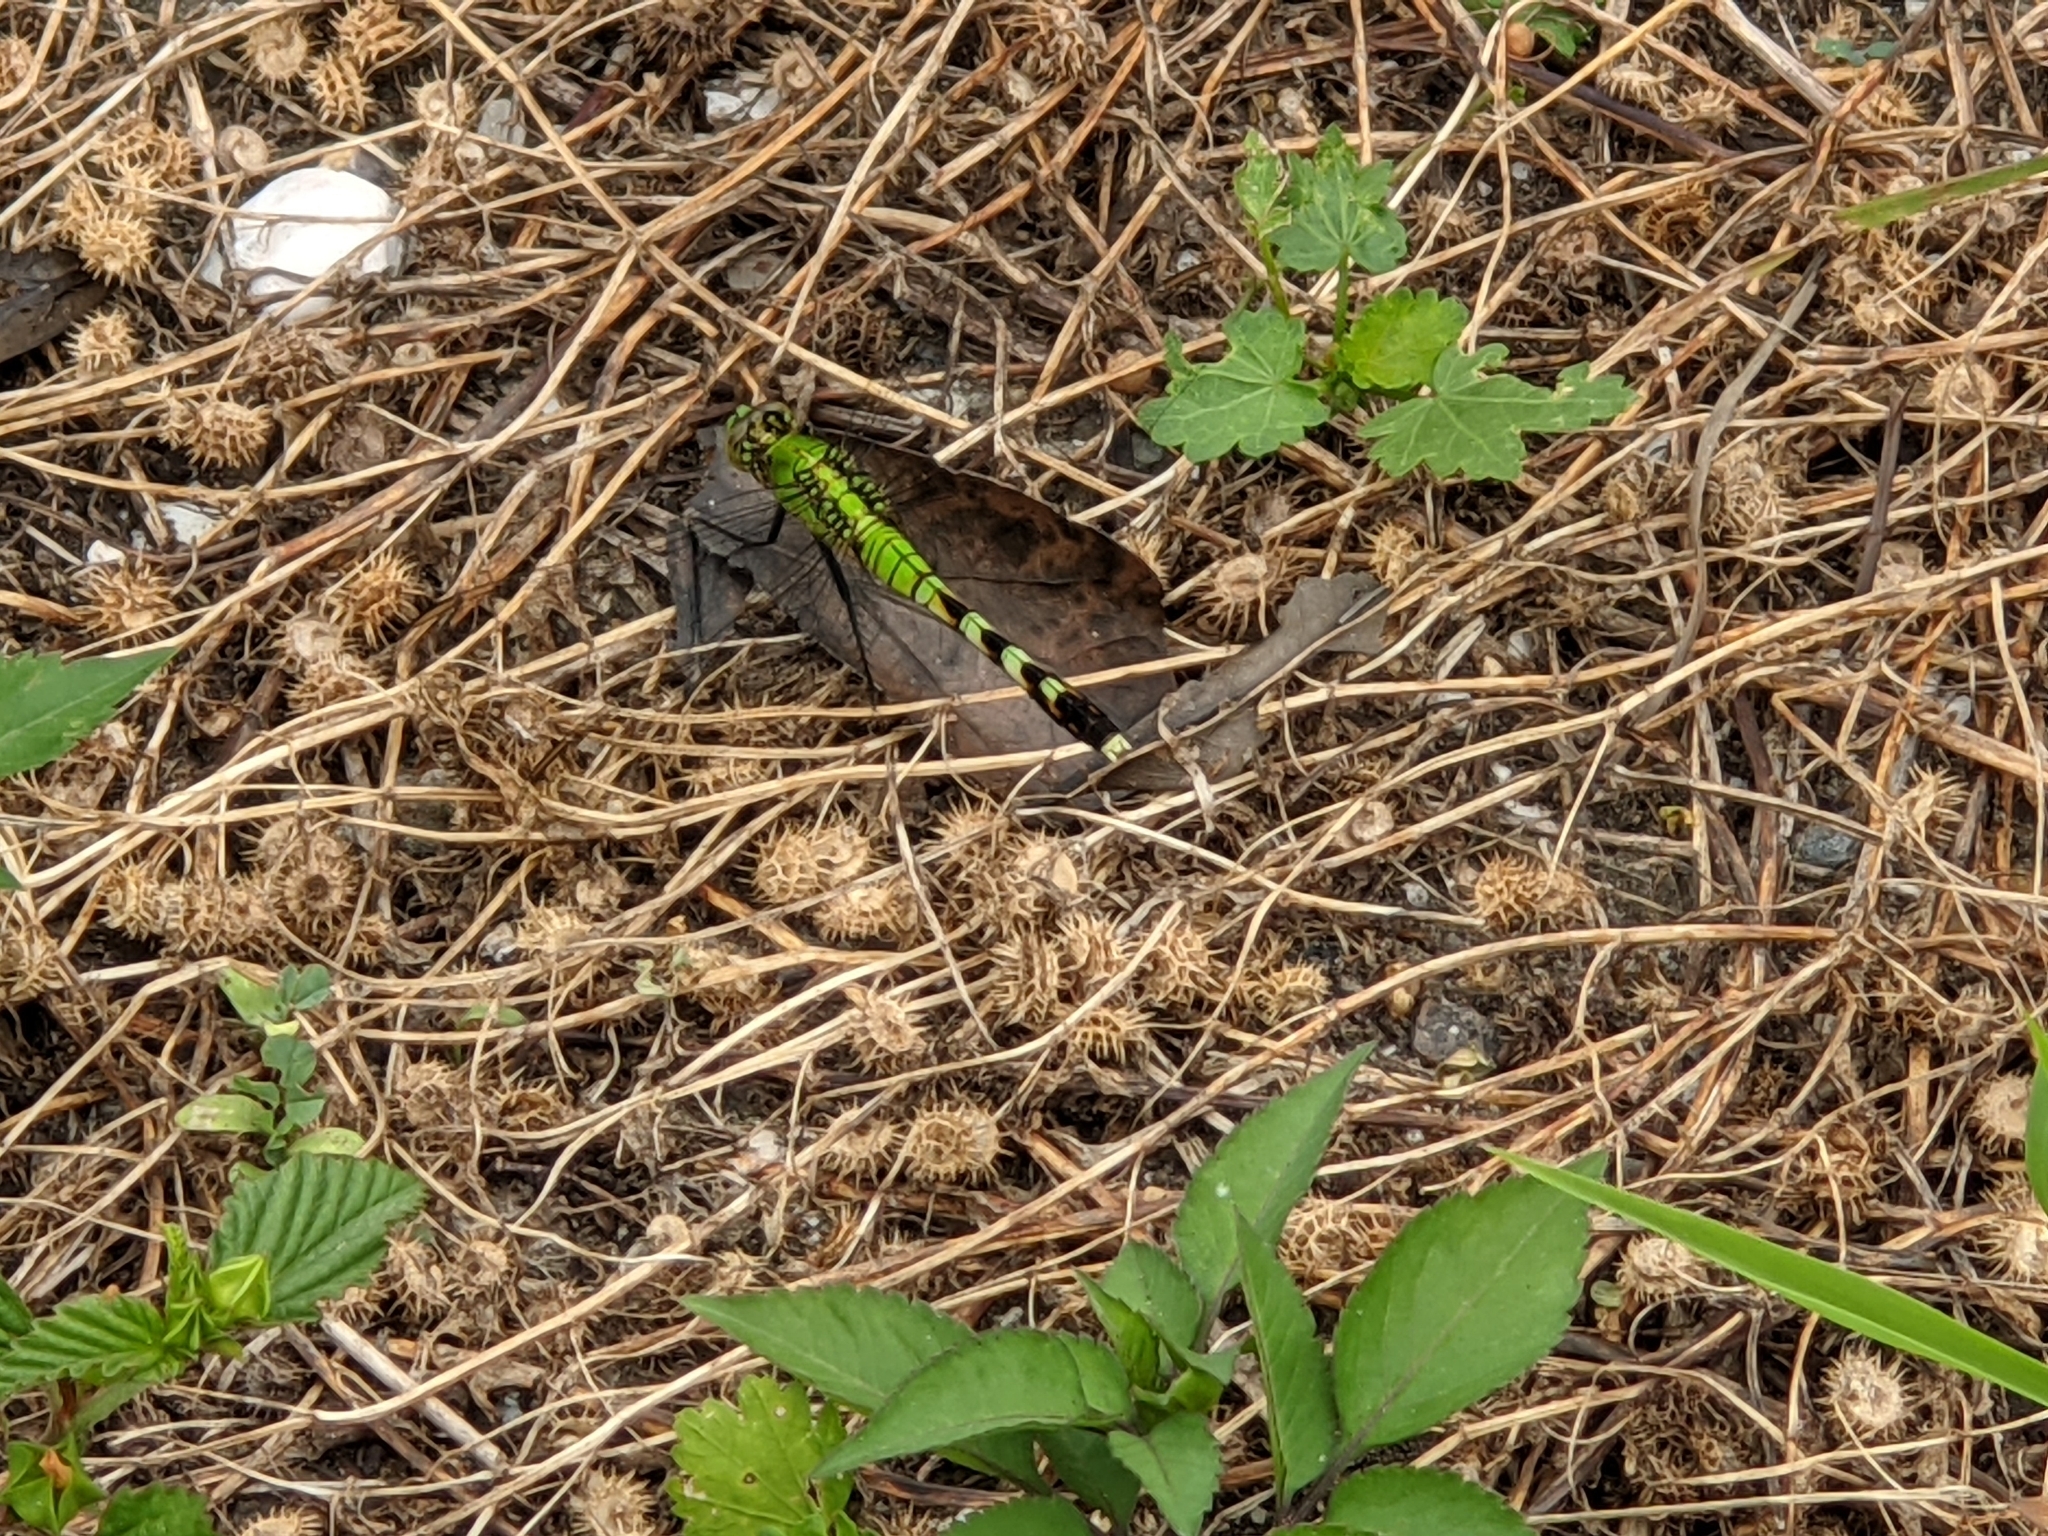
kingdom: Animalia
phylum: Arthropoda
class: Insecta
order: Odonata
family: Libellulidae
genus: Erythemis
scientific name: Erythemis simplicicollis
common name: Eastern pondhawk
